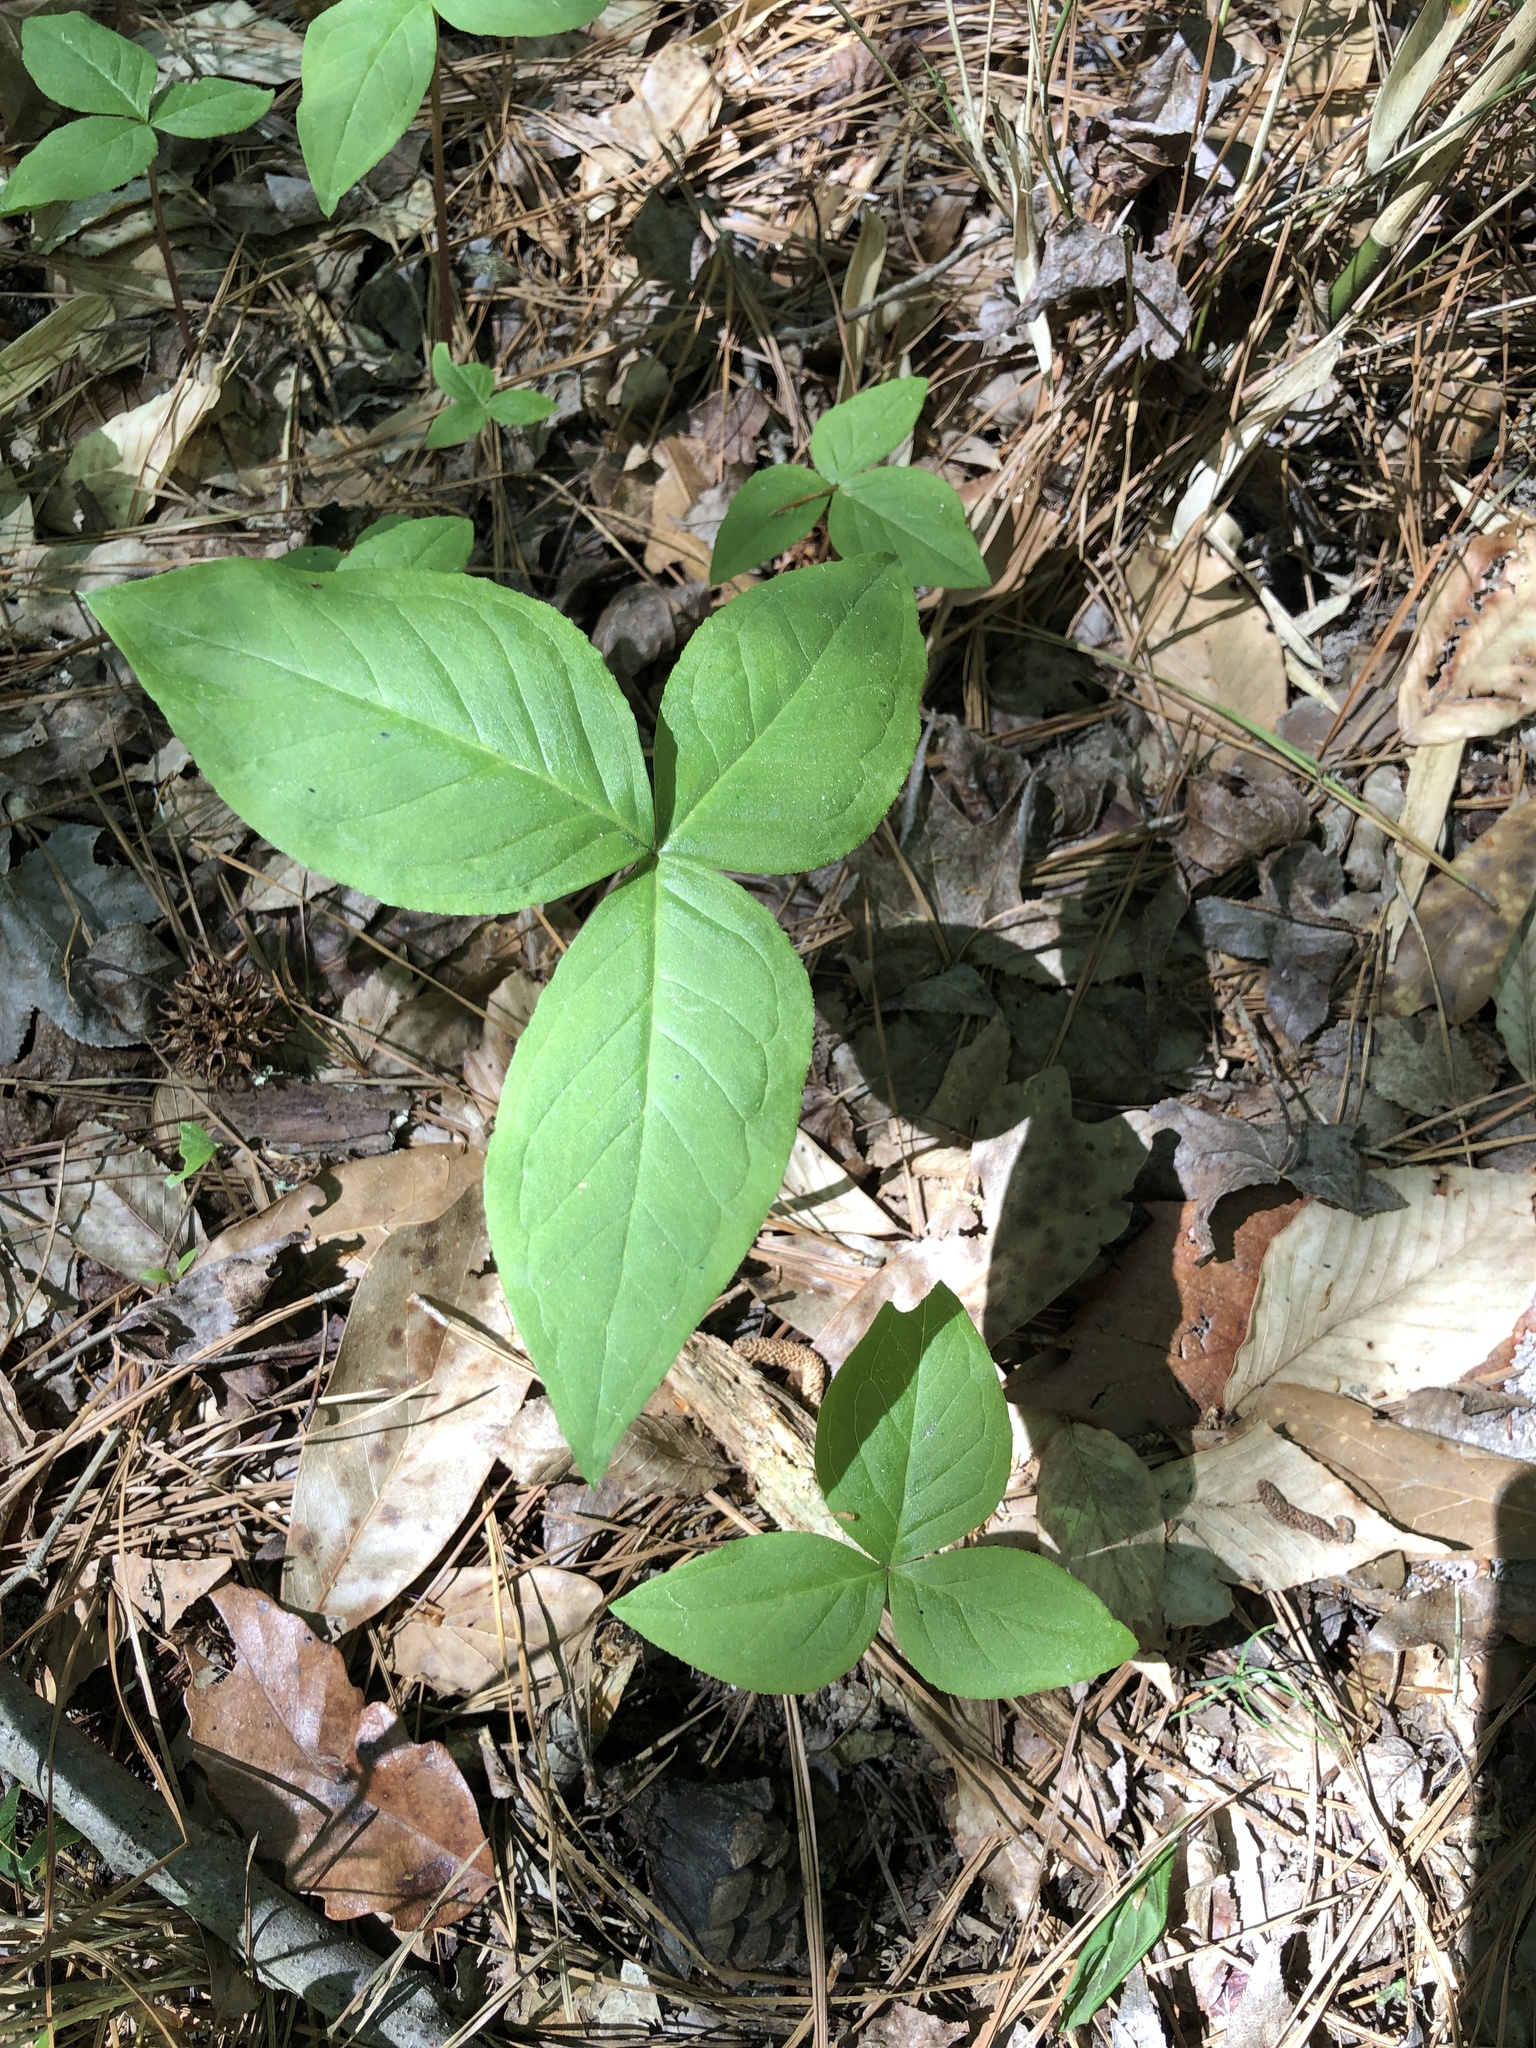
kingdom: Plantae
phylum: Tracheophyta
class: Liliopsida
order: Alismatales
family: Araceae
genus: Arisaema
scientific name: Arisaema triphyllum
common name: Jack-in-the-pulpit
